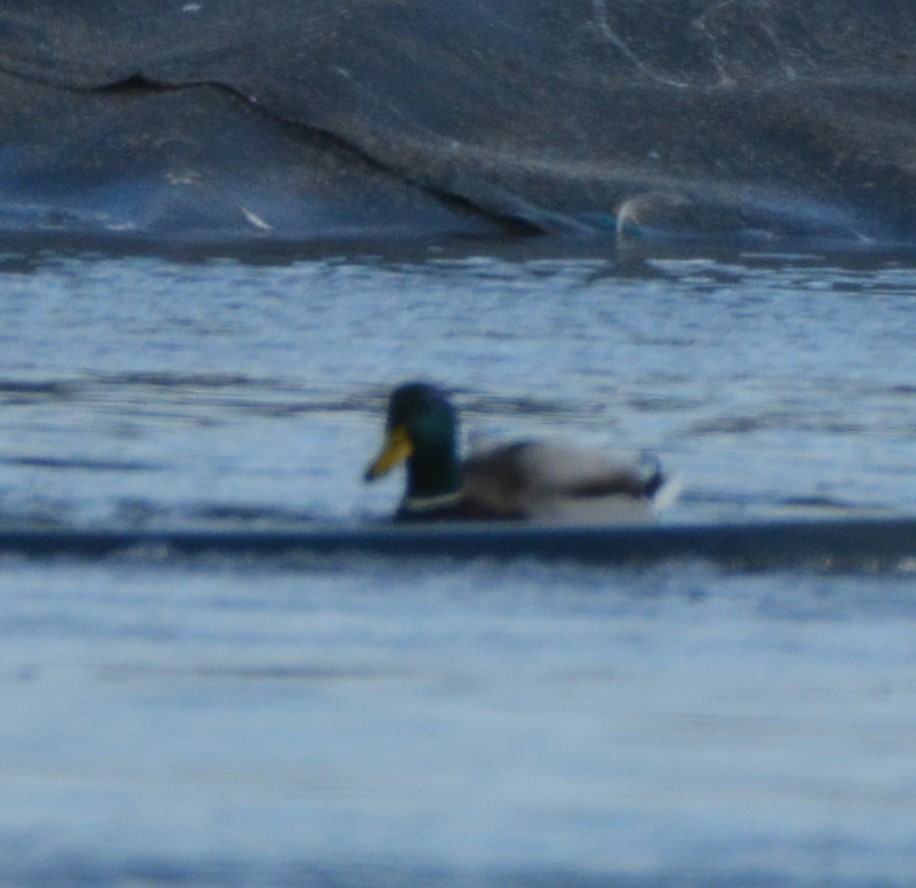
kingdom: Animalia
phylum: Chordata
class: Aves
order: Anseriformes
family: Anatidae
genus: Anas
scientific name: Anas platyrhynchos
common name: Mallard
